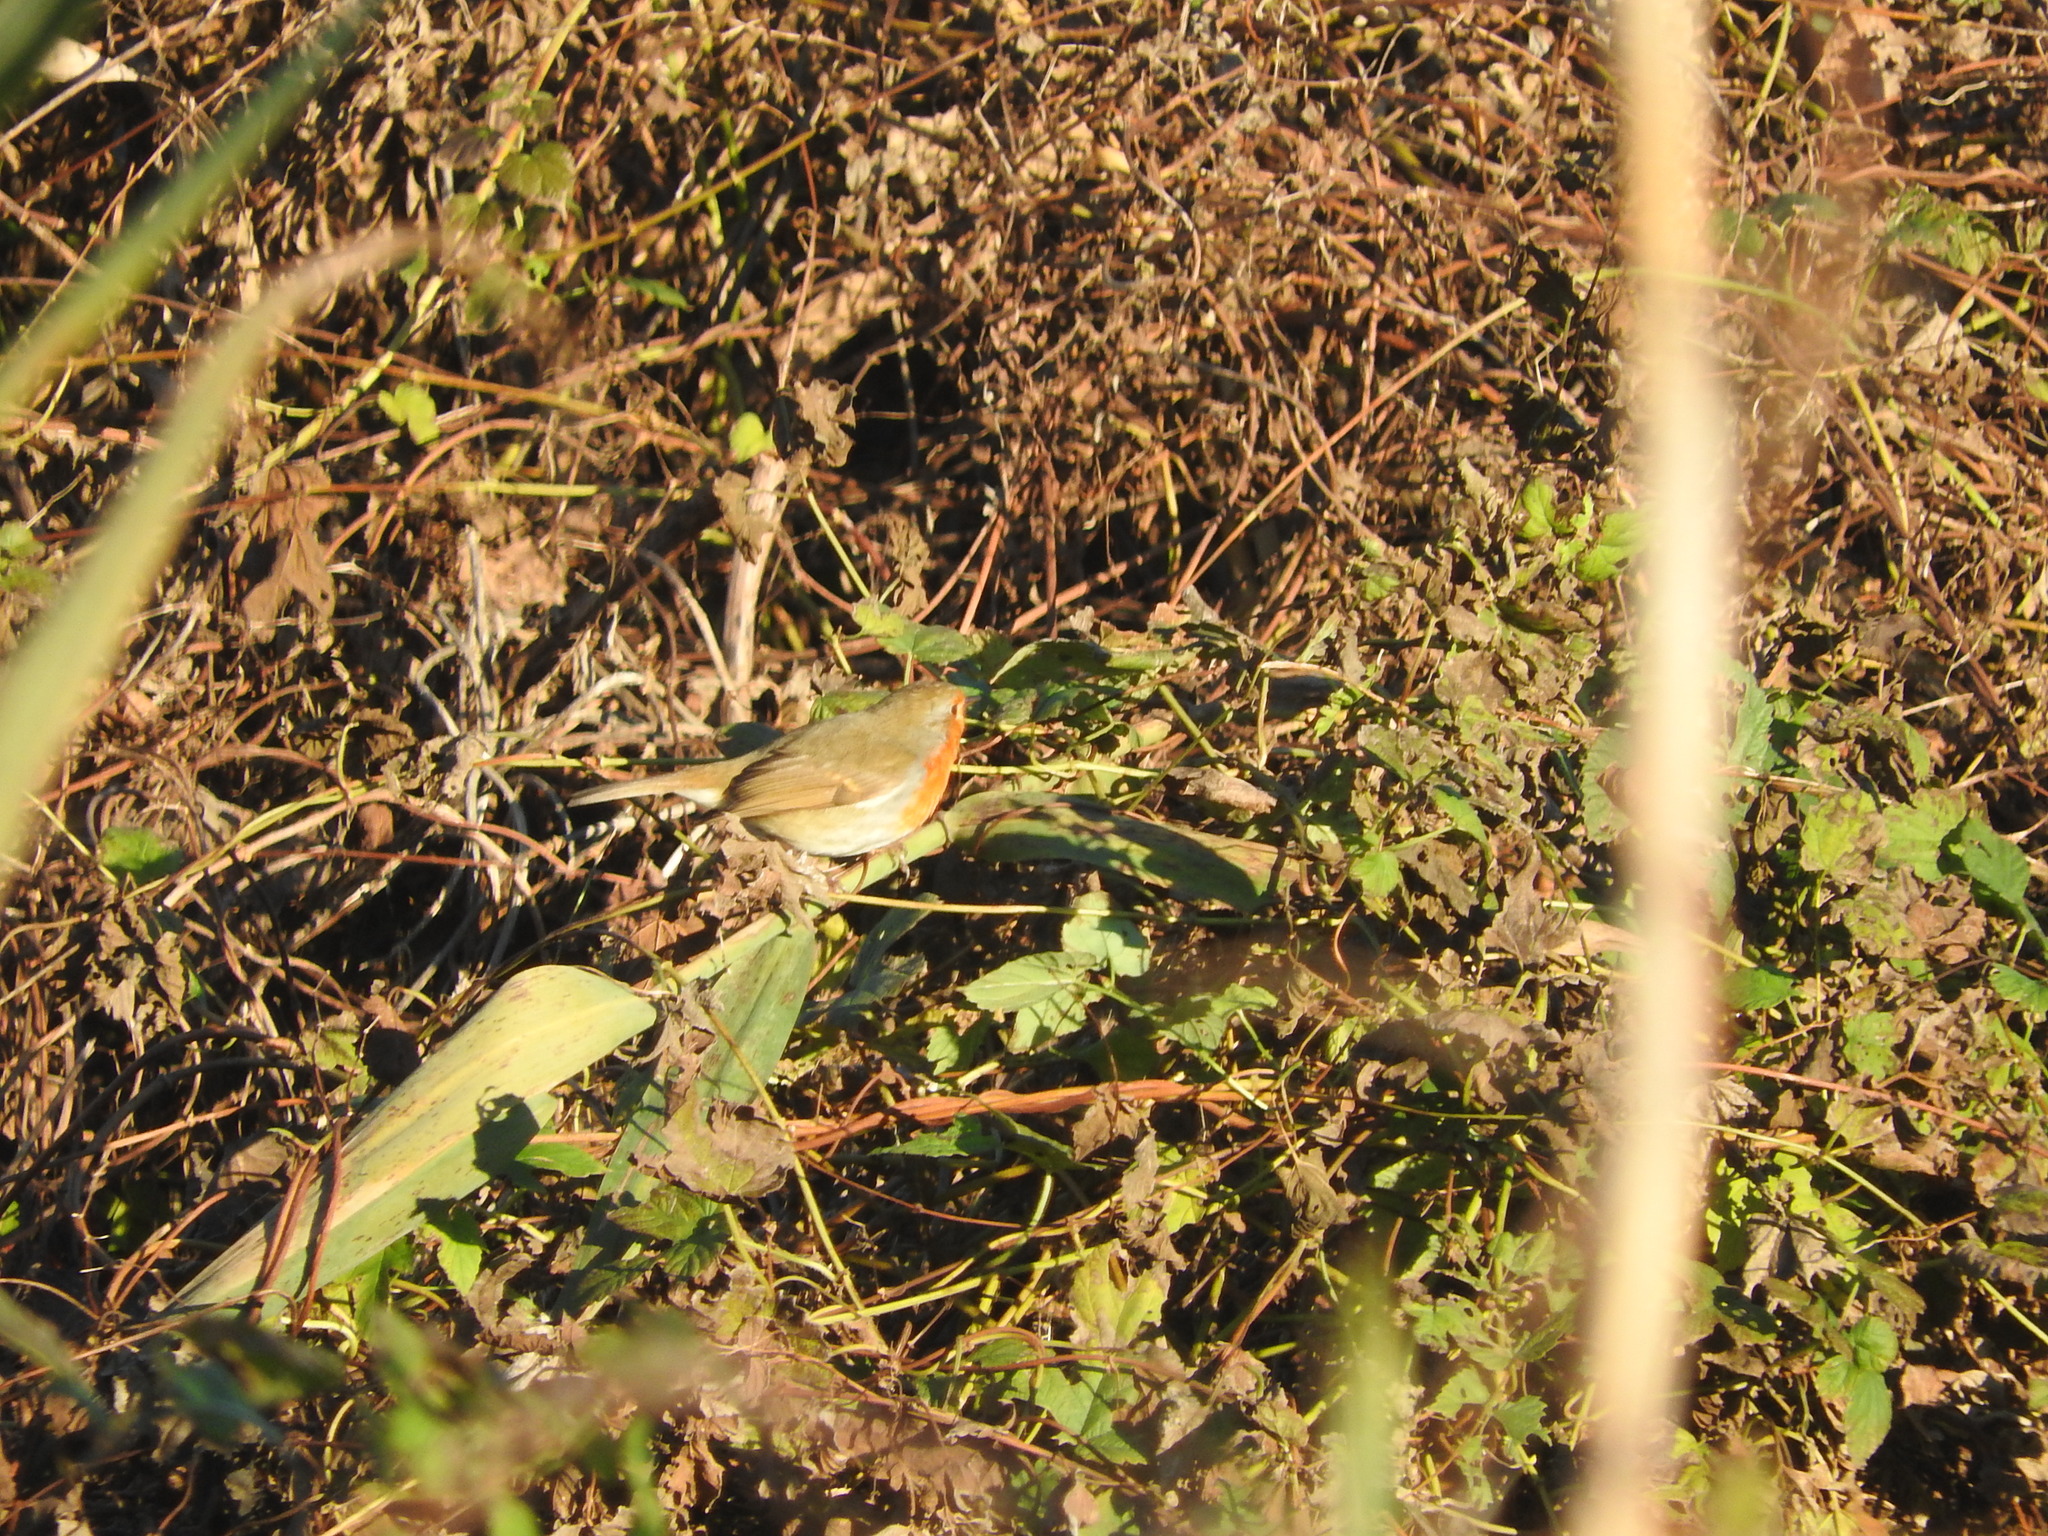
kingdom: Animalia
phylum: Chordata
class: Aves
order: Passeriformes
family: Muscicapidae
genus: Erithacus
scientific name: Erithacus rubecula
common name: European robin
